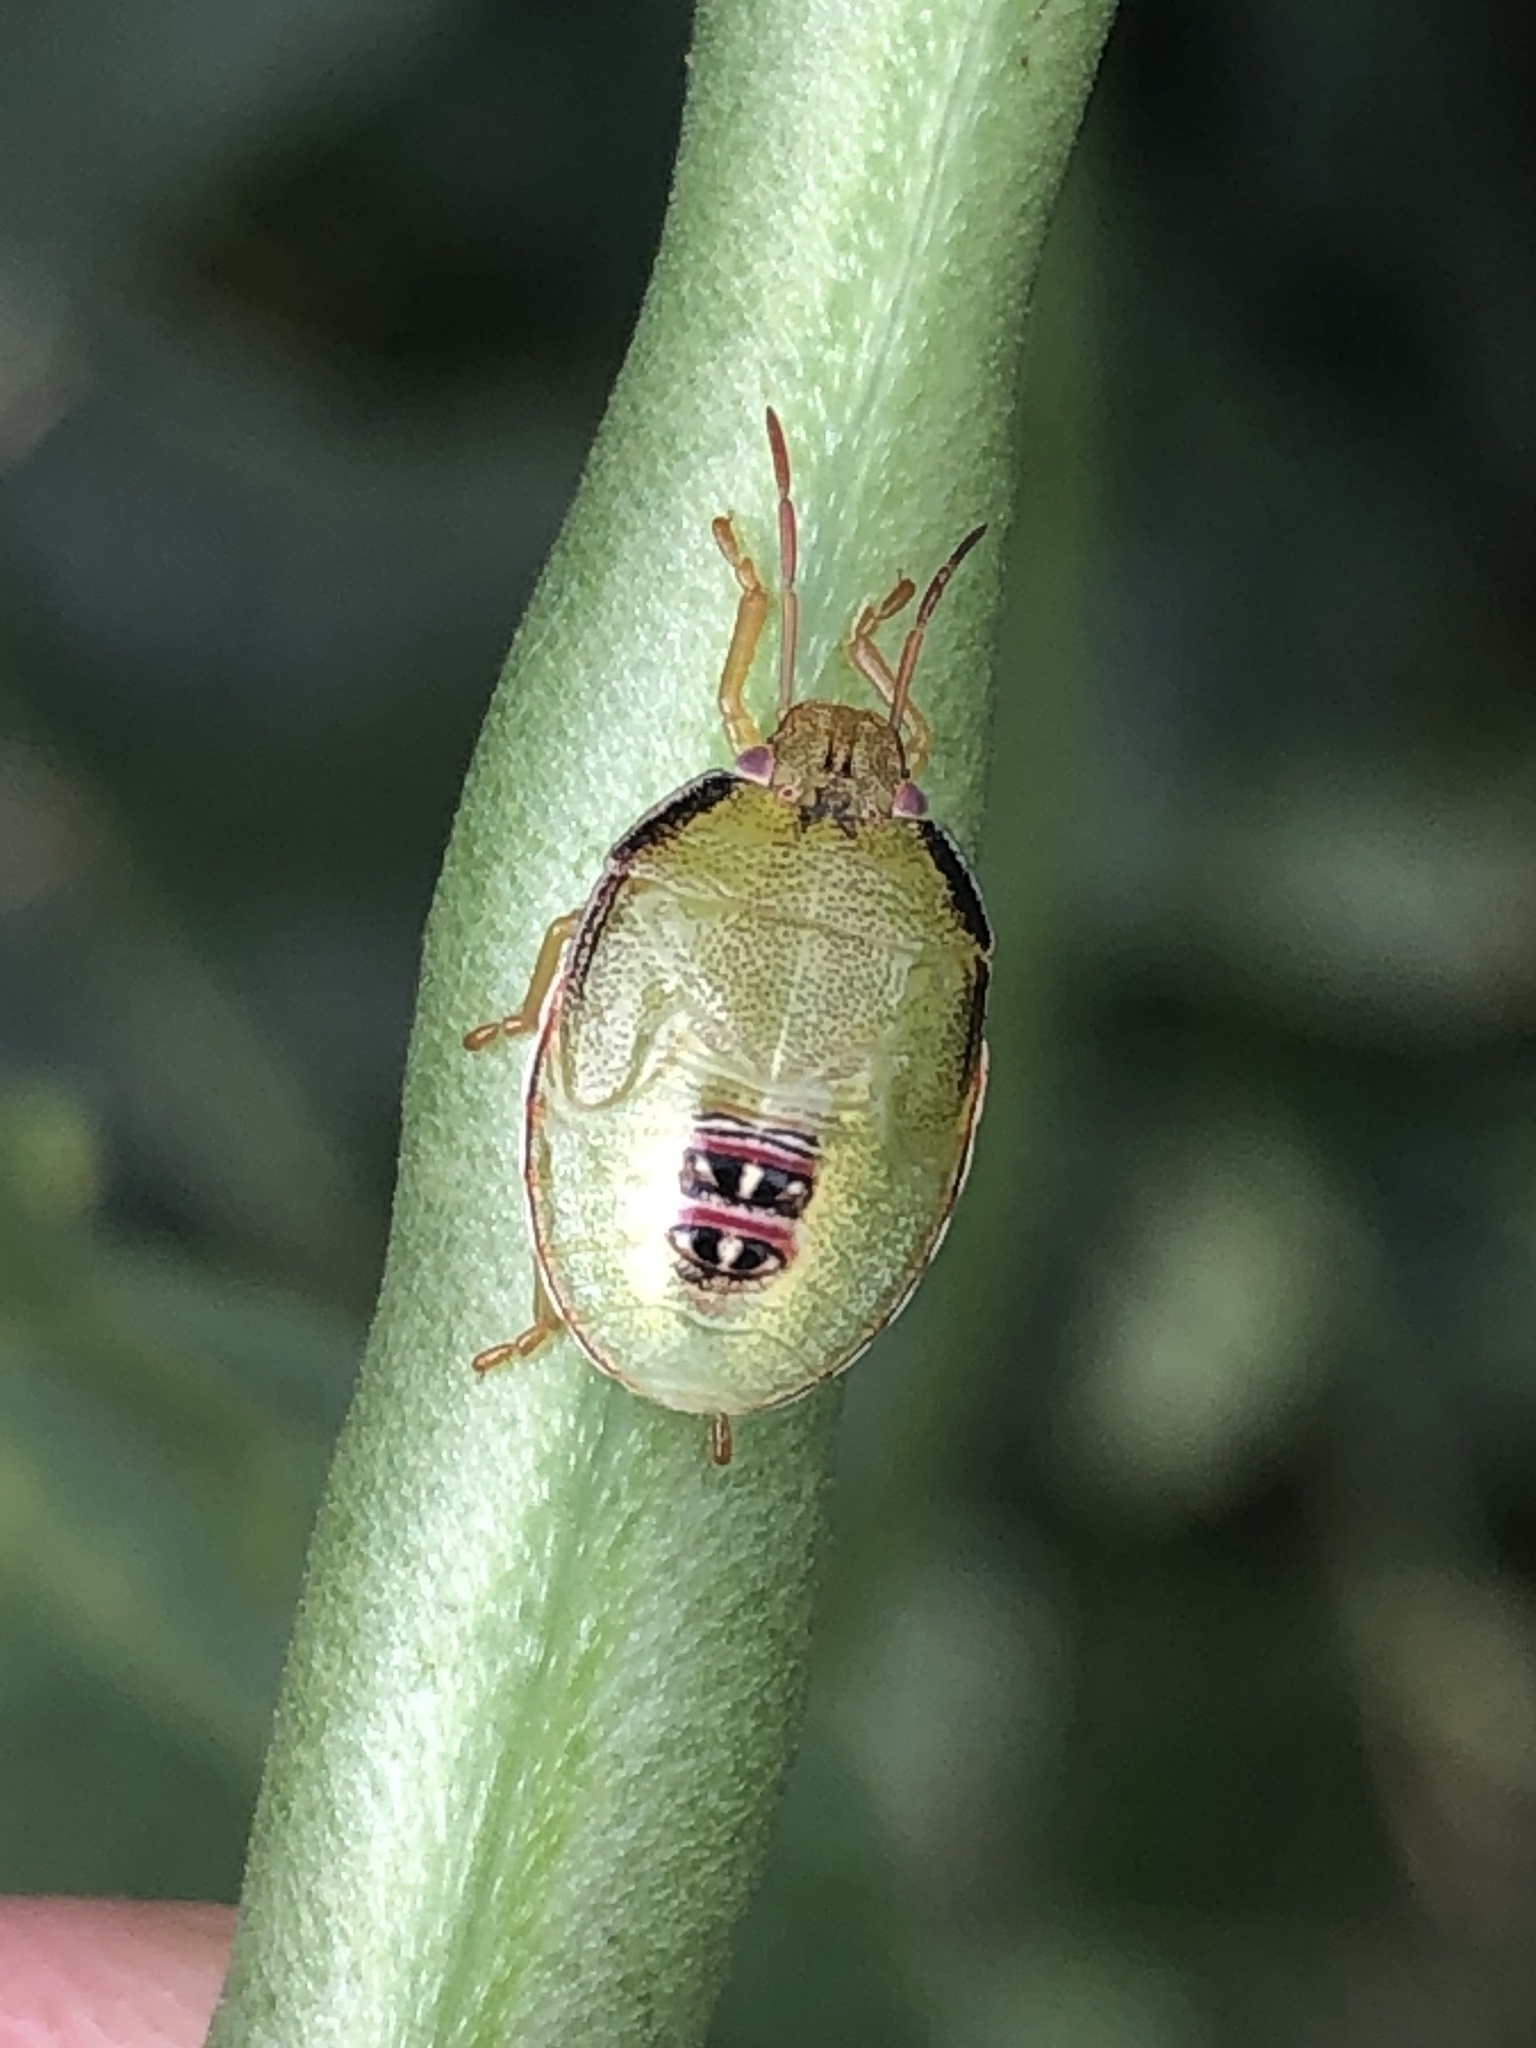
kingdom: Animalia
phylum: Arthropoda
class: Insecta
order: Hemiptera
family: Pentatomidae
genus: Piezodorus
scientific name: Piezodorus guildinii
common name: Redbanded stink bug
